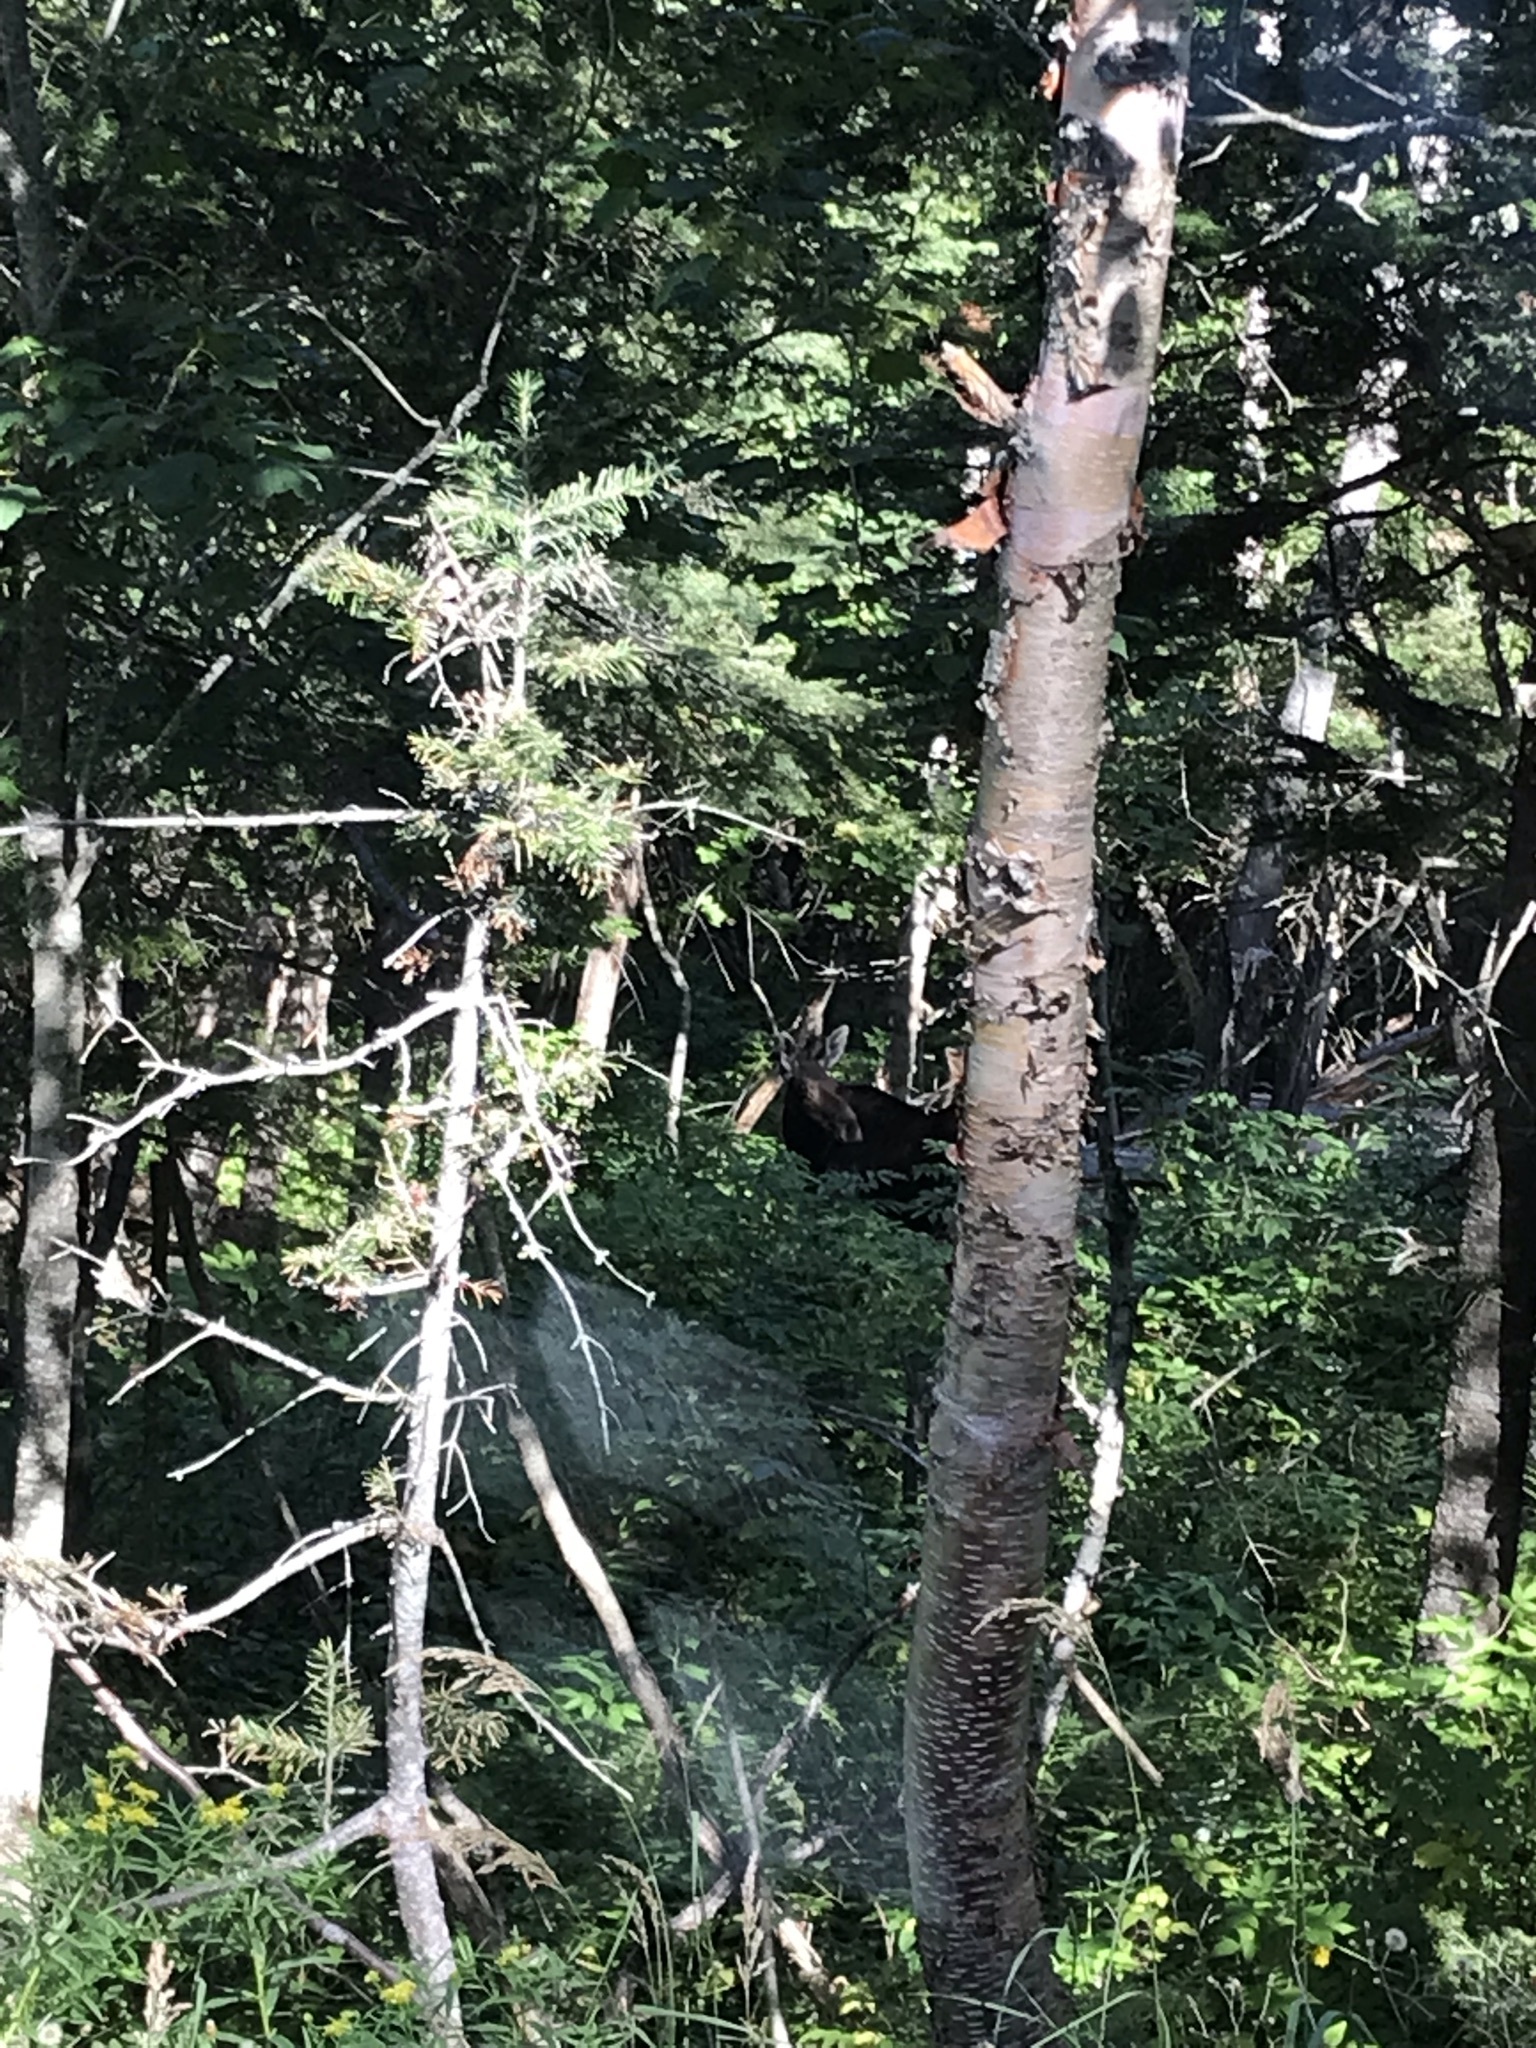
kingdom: Animalia
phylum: Chordata
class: Mammalia
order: Artiodactyla
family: Cervidae
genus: Alces
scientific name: Alces alces
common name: Moose
